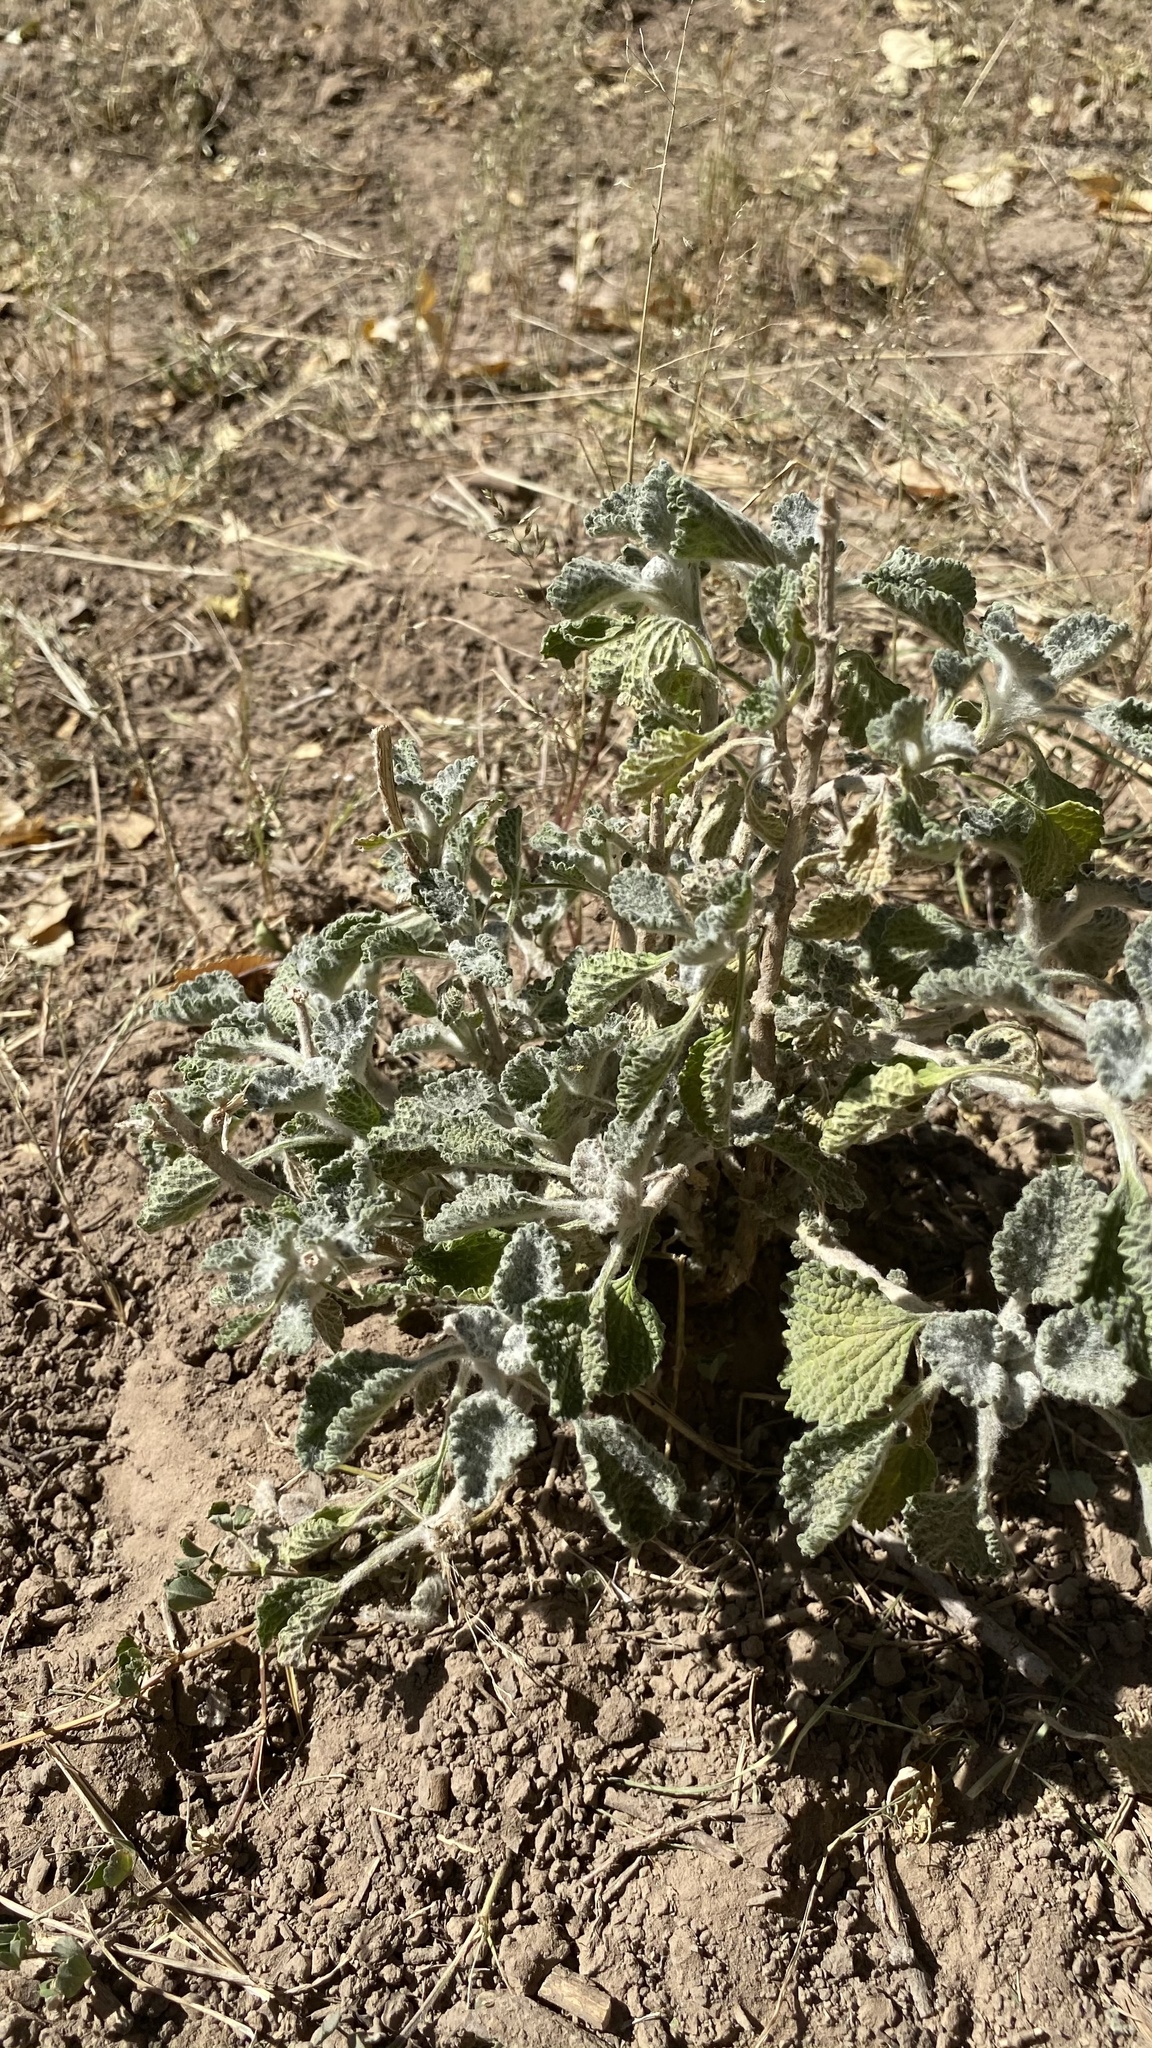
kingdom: Plantae
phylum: Tracheophyta
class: Magnoliopsida
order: Lamiales
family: Lamiaceae
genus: Marrubium
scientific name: Marrubium vulgare
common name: Horehound
